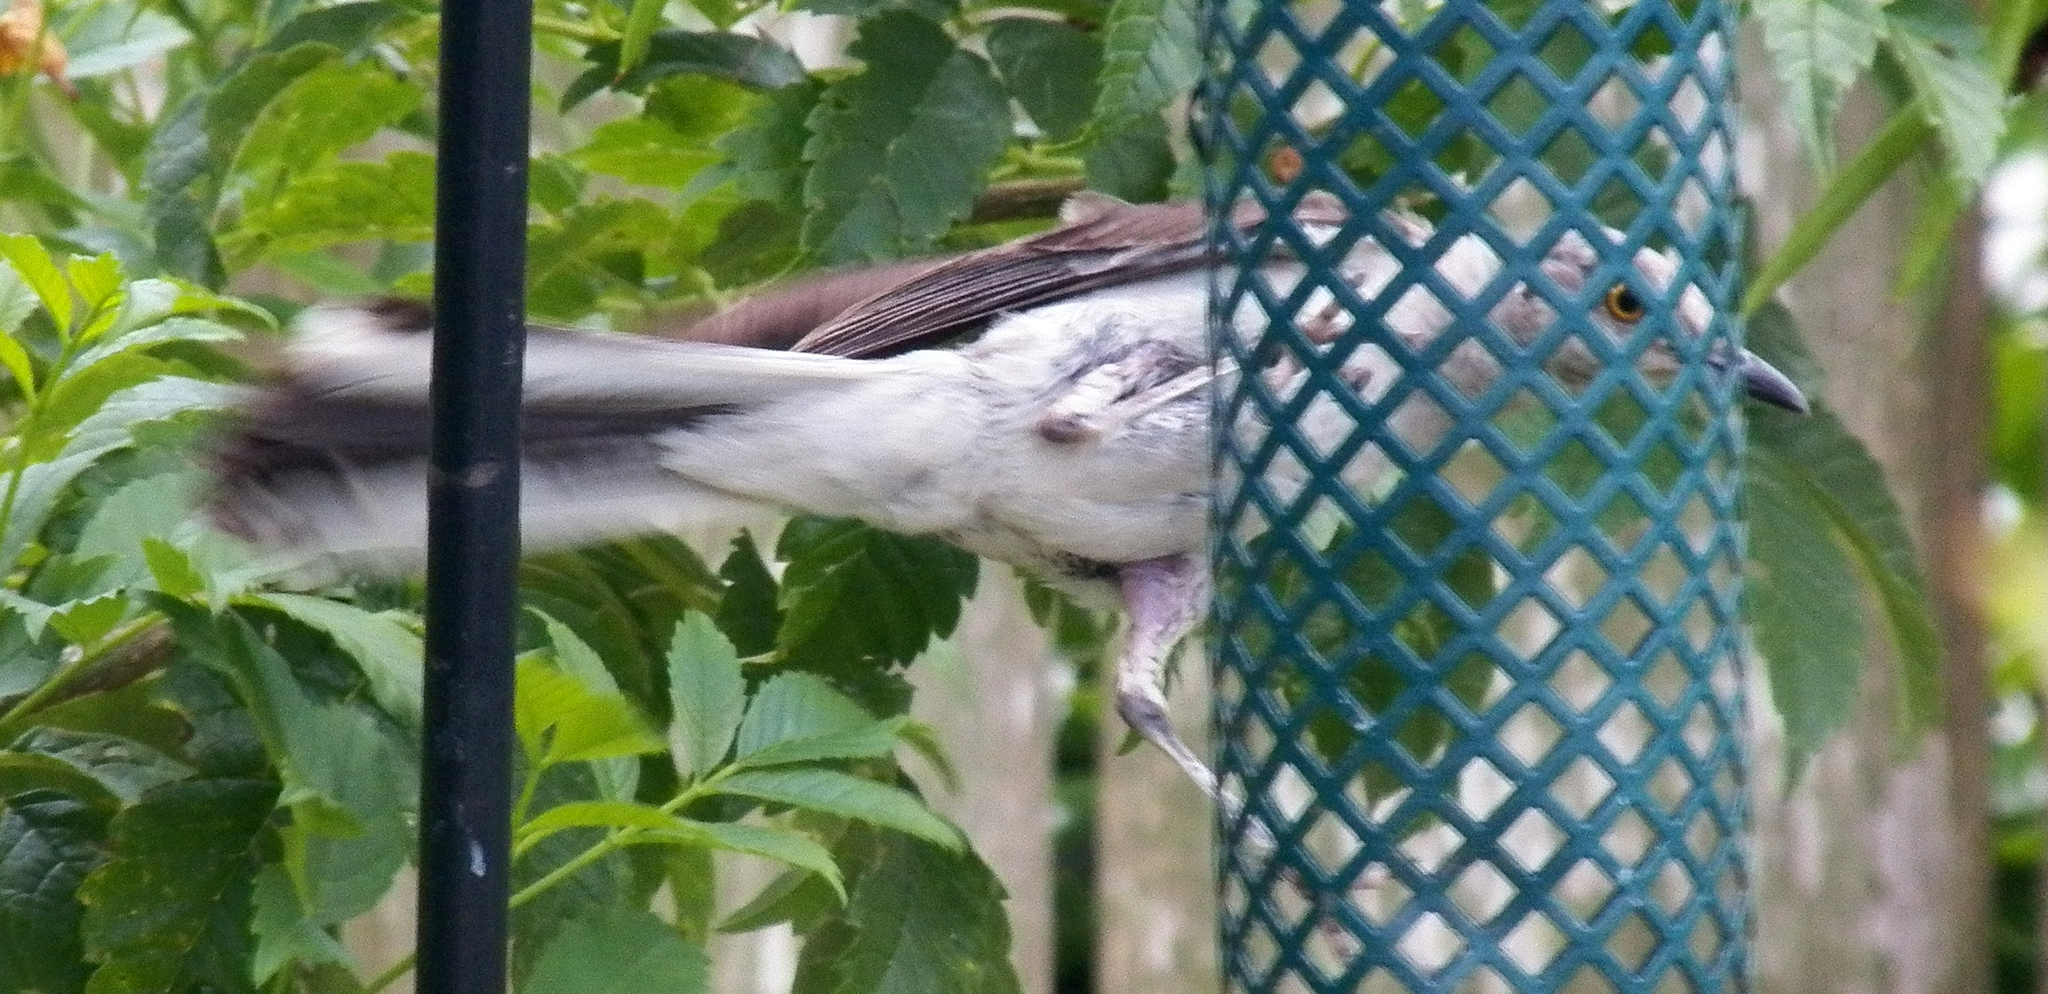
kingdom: Animalia
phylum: Chordata
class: Aves
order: Passeriformes
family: Mimidae
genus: Mimus
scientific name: Mimus polyglottos
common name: Northern mockingbird
